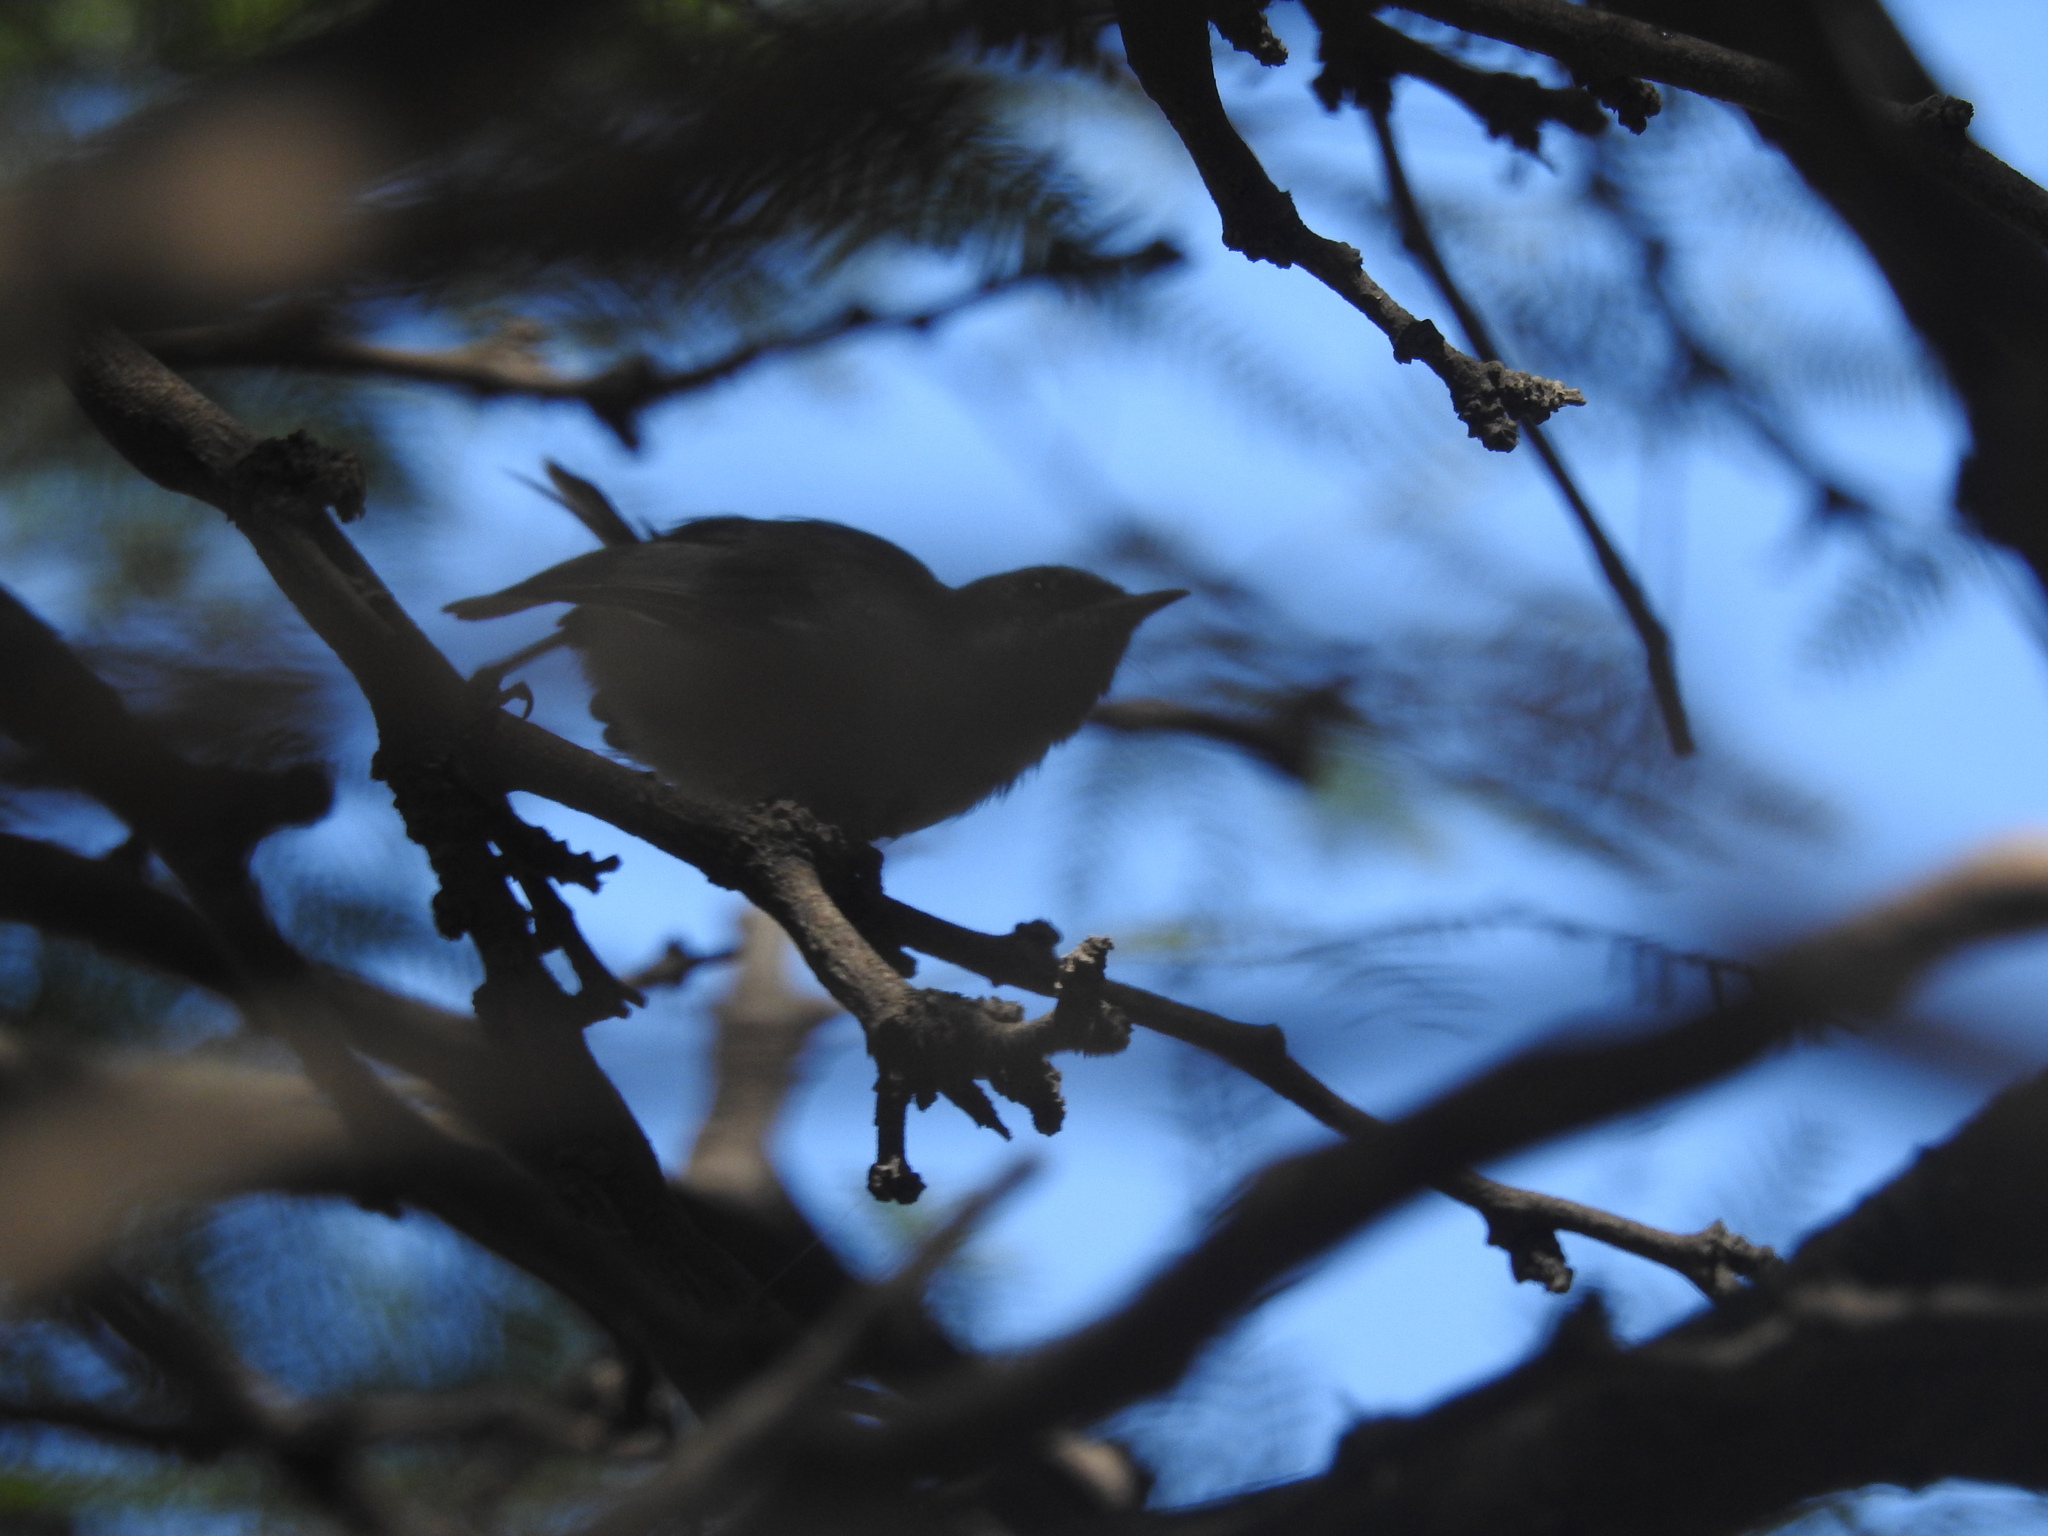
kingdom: Animalia
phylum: Chordata
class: Aves
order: Passeriformes
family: Polioptilidae
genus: Polioptila
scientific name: Polioptila dumicola
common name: Masked gnatcatcher
